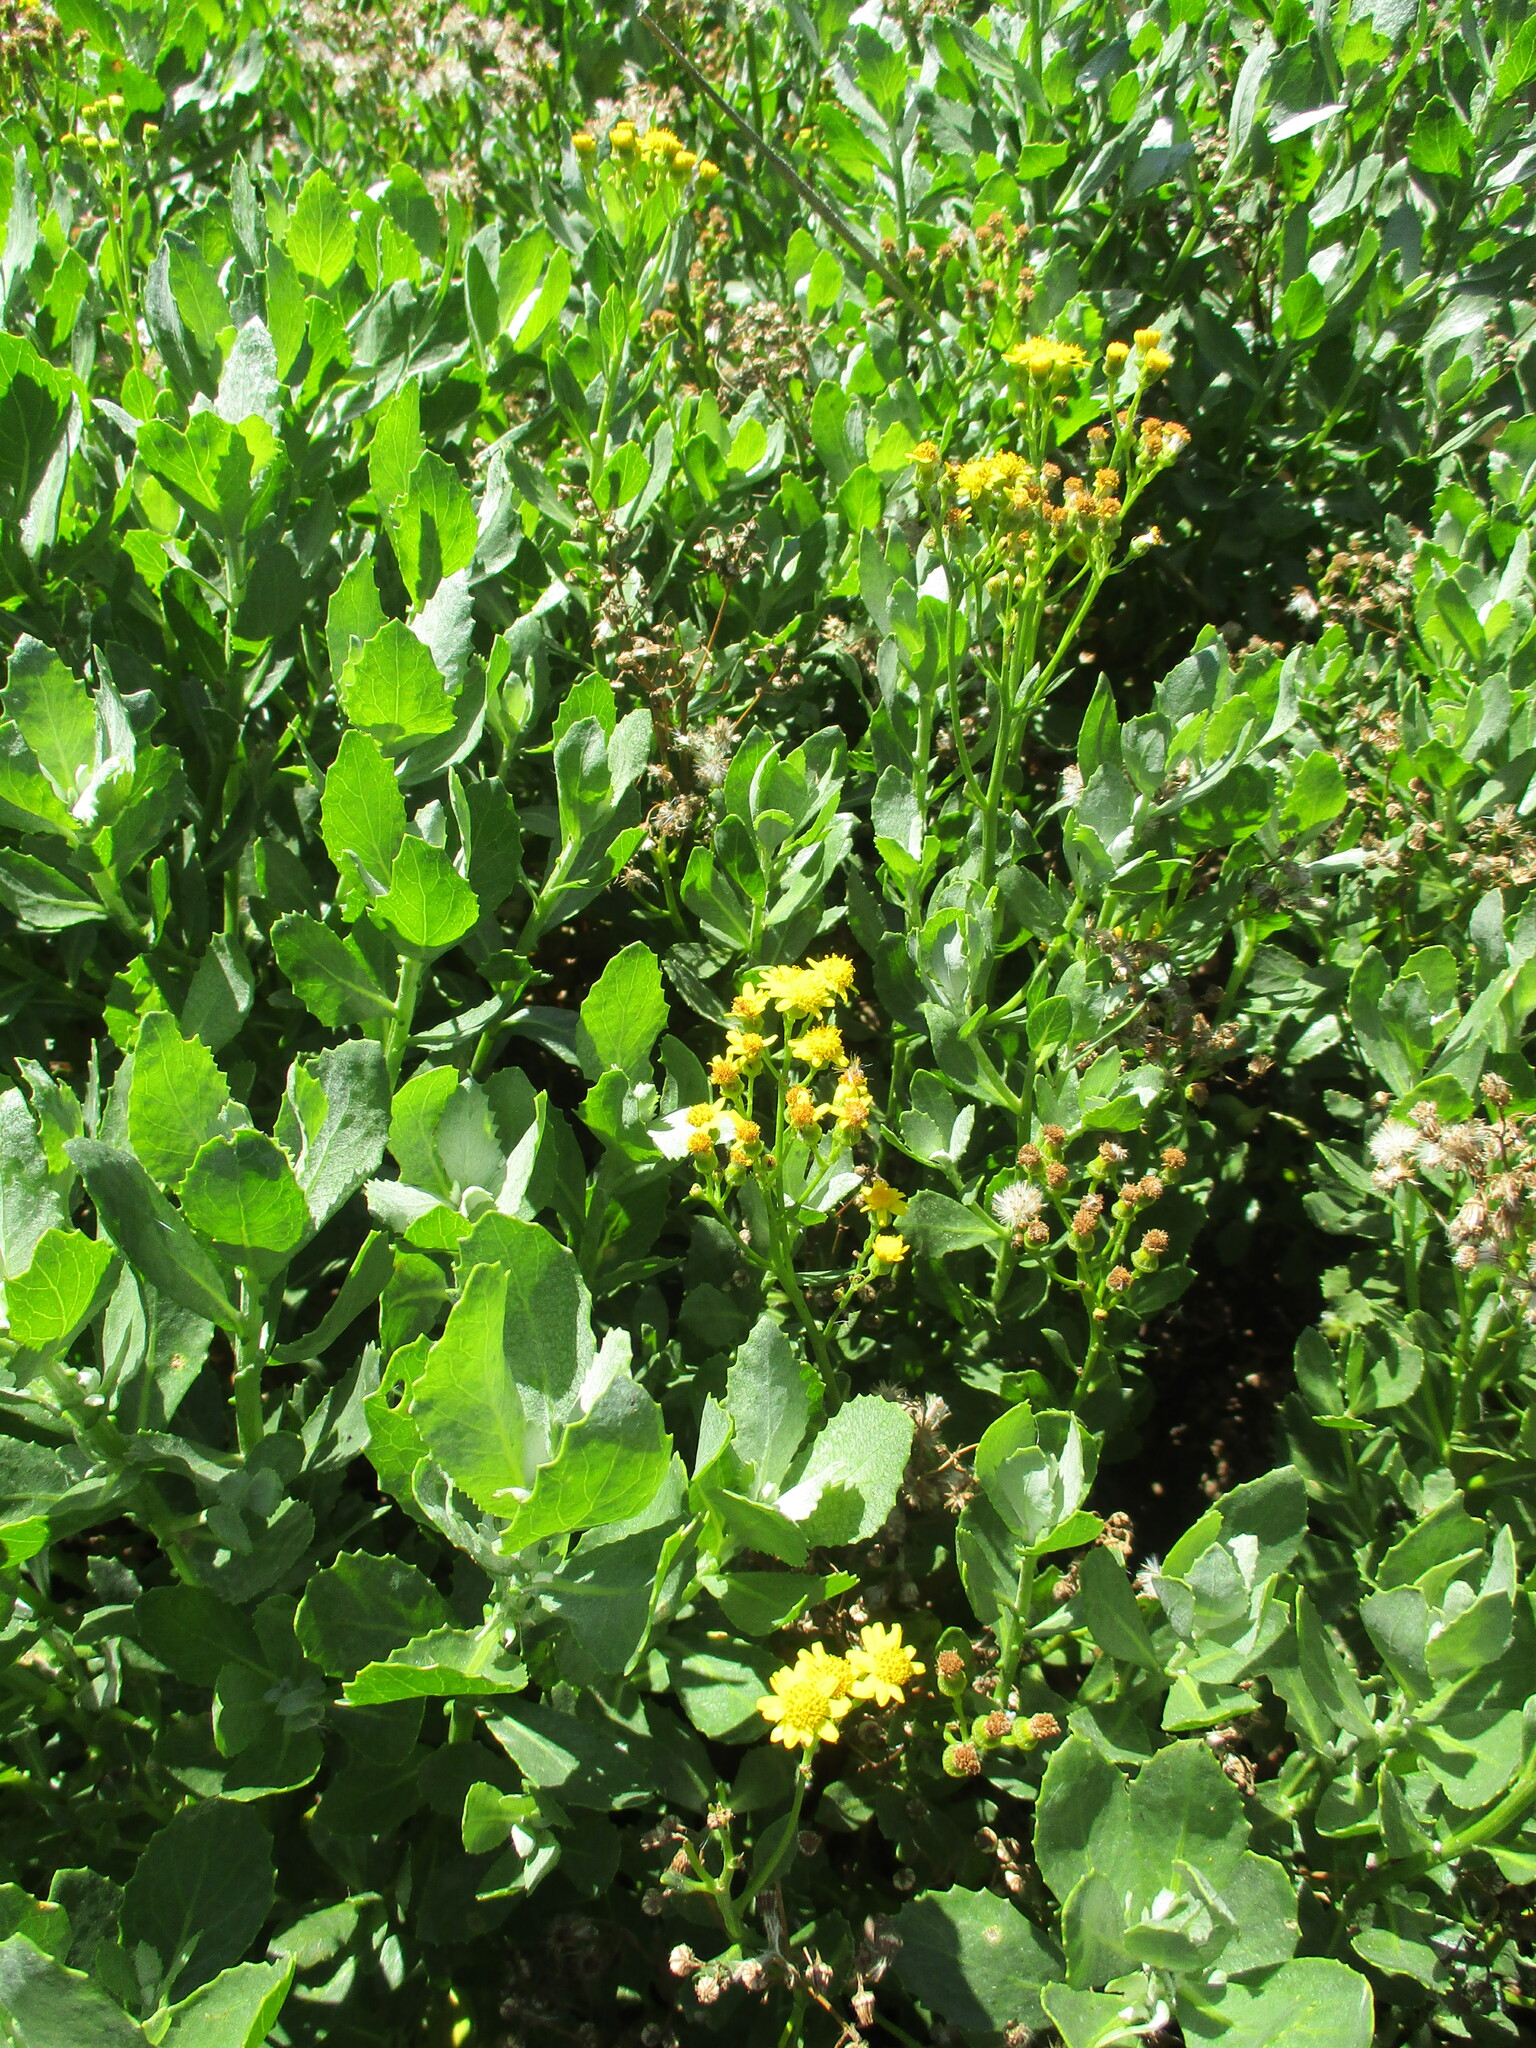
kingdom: Plantae
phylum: Tracheophyta
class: Magnoliopsida
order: Asterales
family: Asteraceae
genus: Senecio
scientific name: Senecio halimifolius
